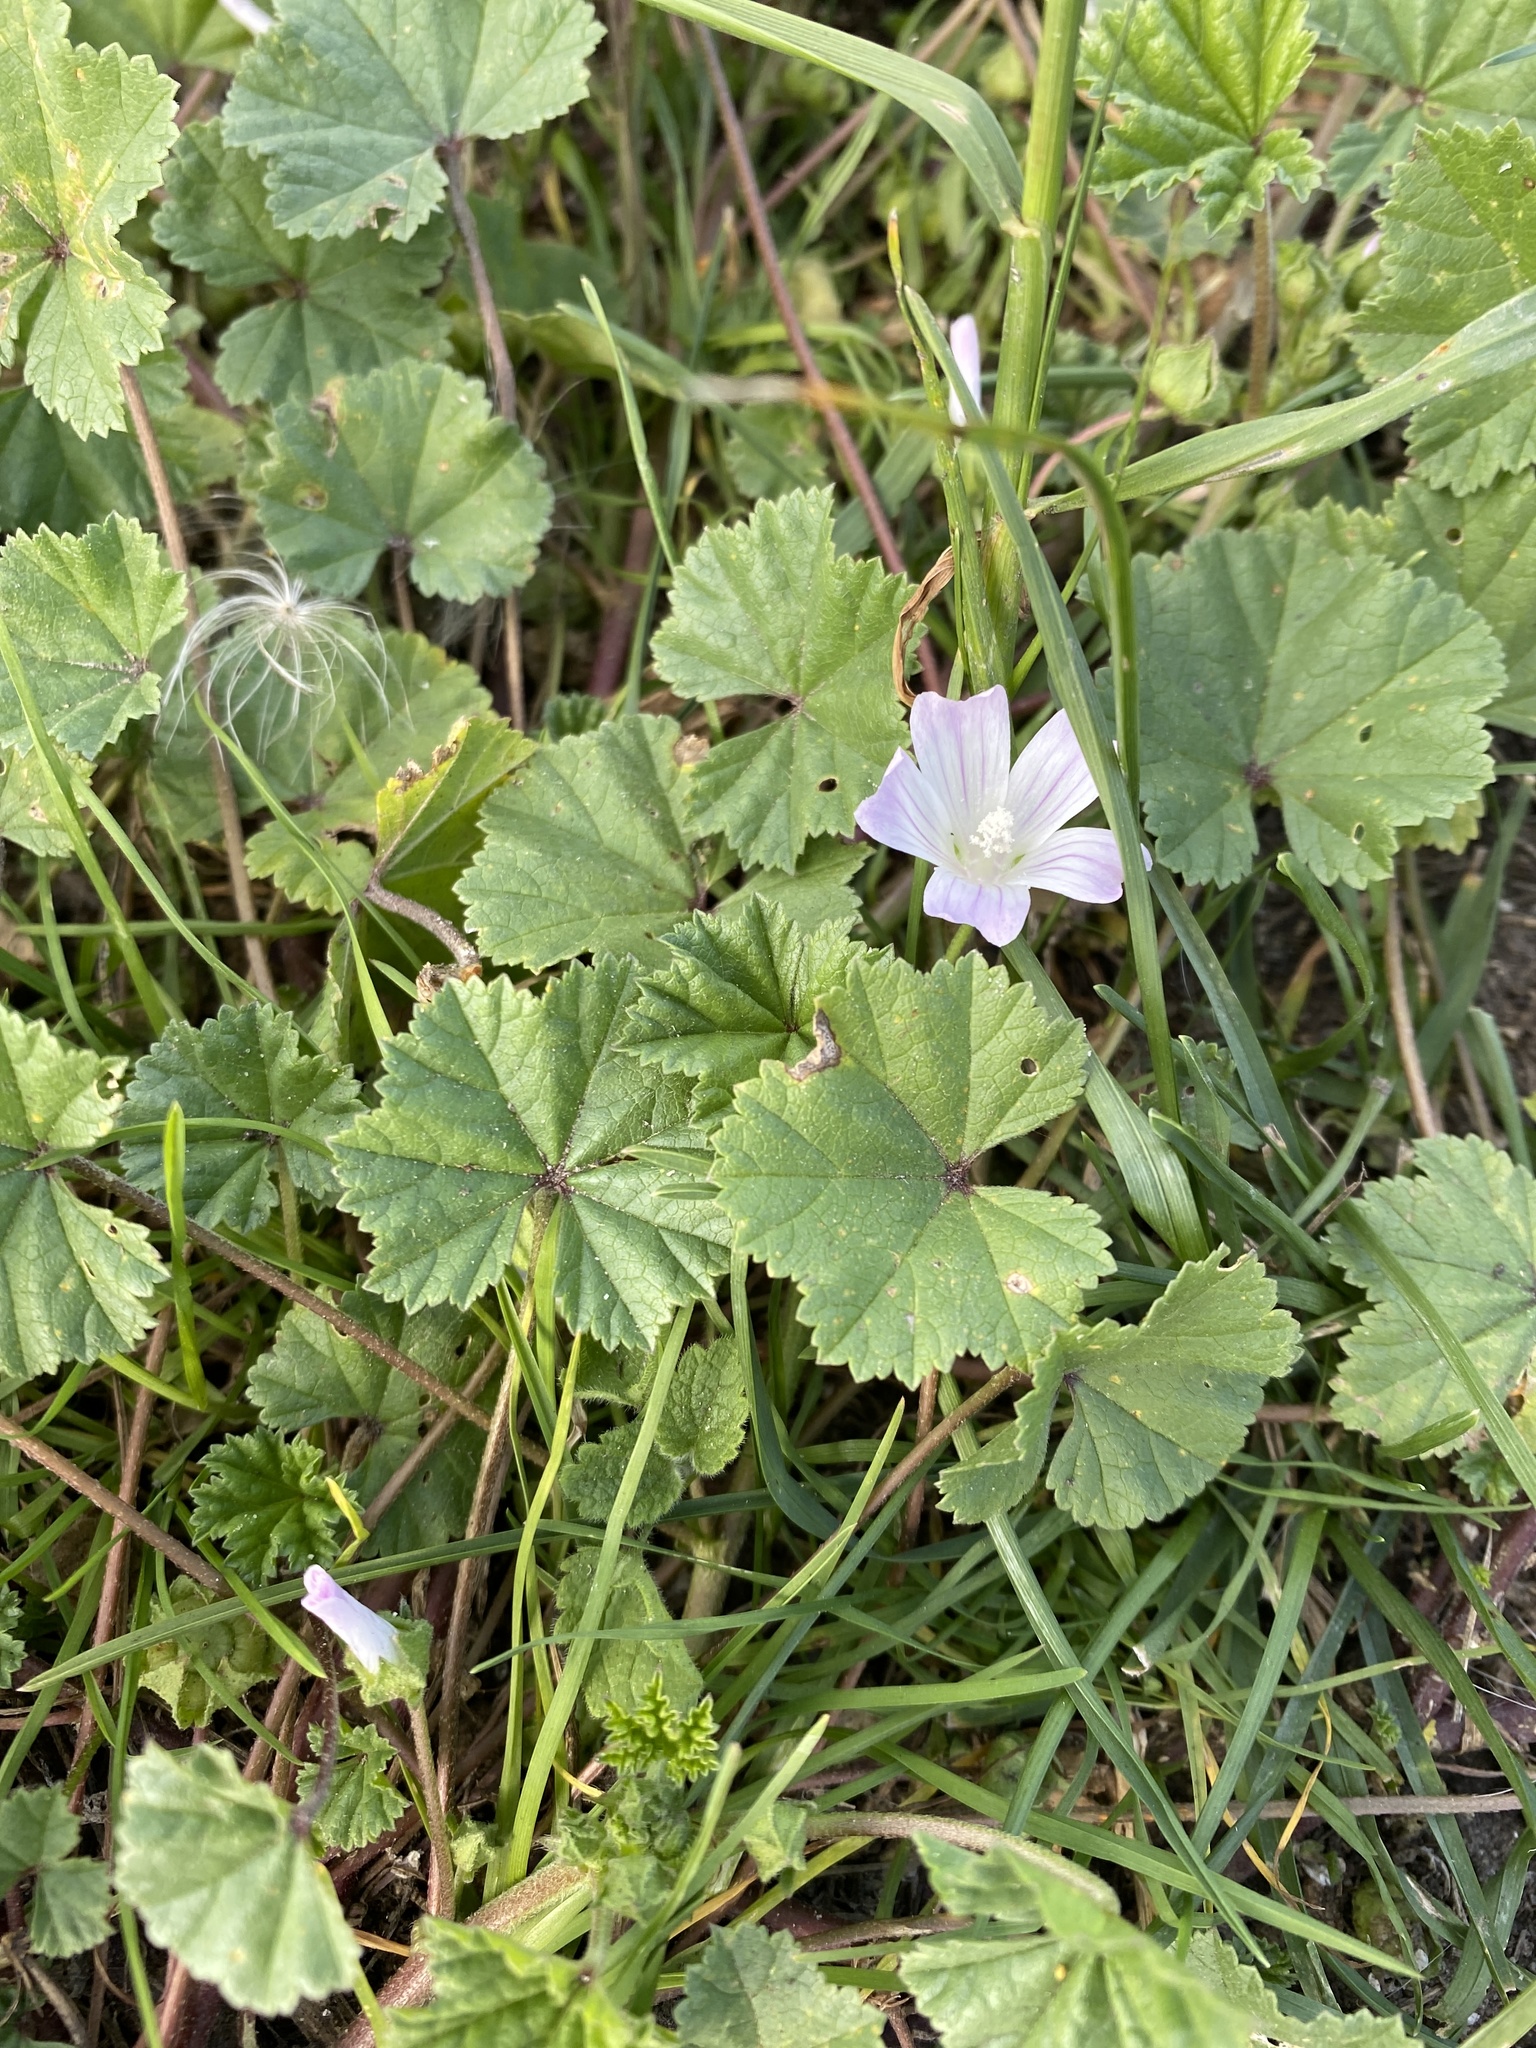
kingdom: Plantae
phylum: Tracheophyta
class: Magnoliopsida
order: Malvales
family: Malvaceae
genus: Malva
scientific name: Malva neglecta
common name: Common mallow
